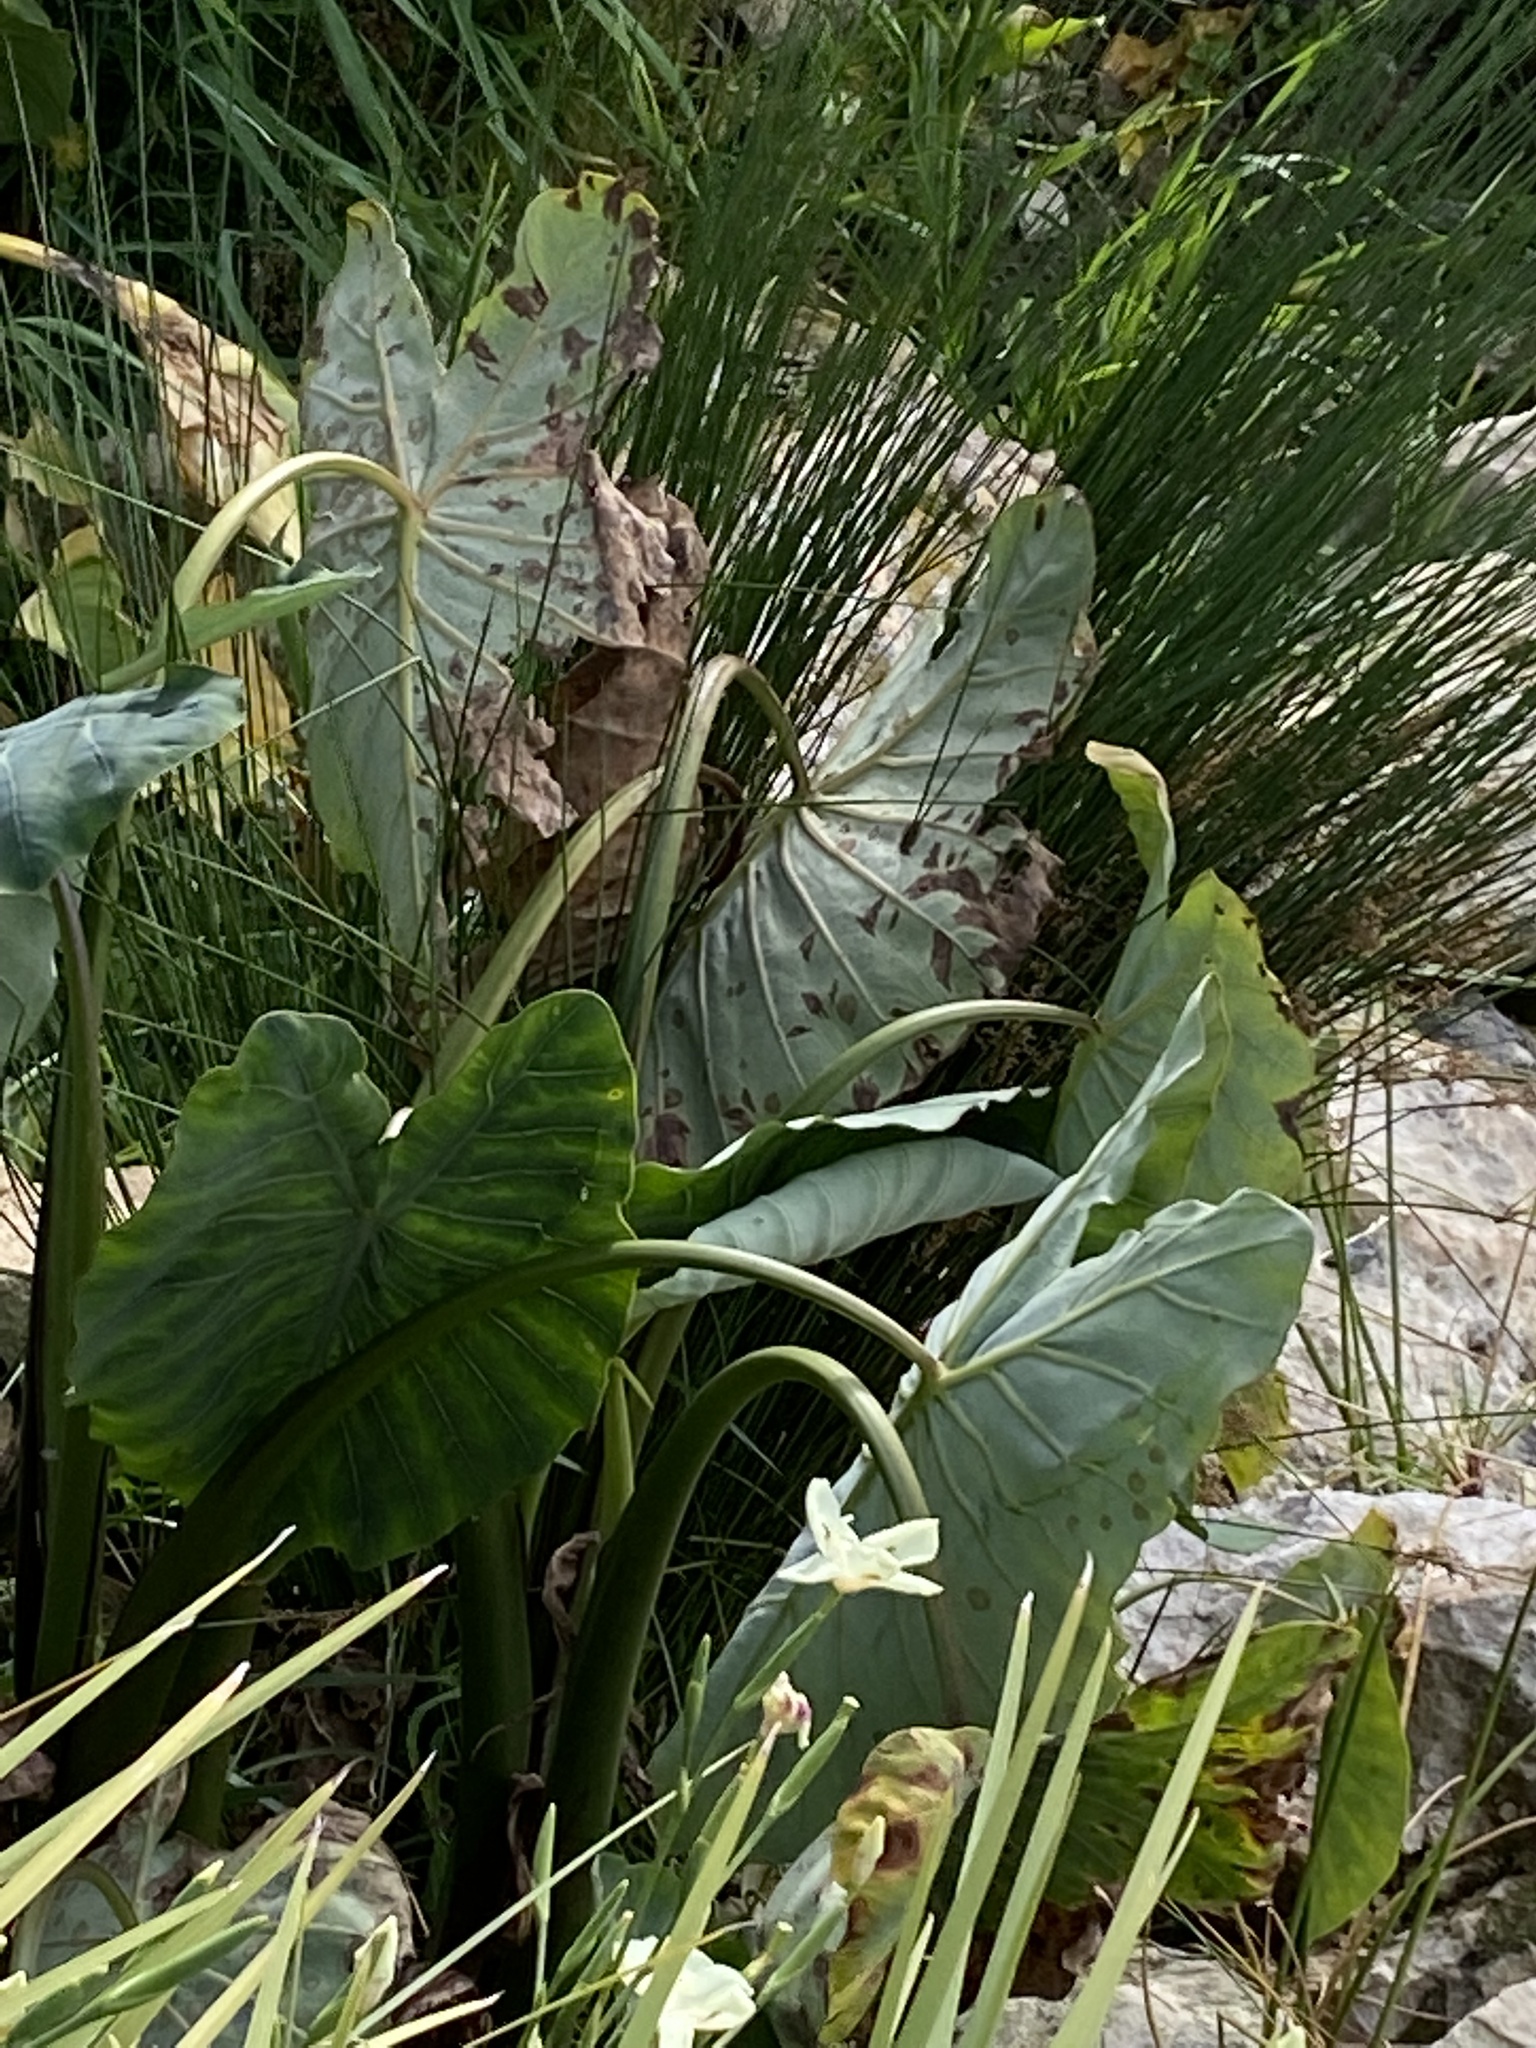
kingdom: Plantae
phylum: Tracheophyta
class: Liliopsida
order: Alismatales
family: Araceae
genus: Colocasia
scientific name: Colocasia esculenta
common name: Taro
